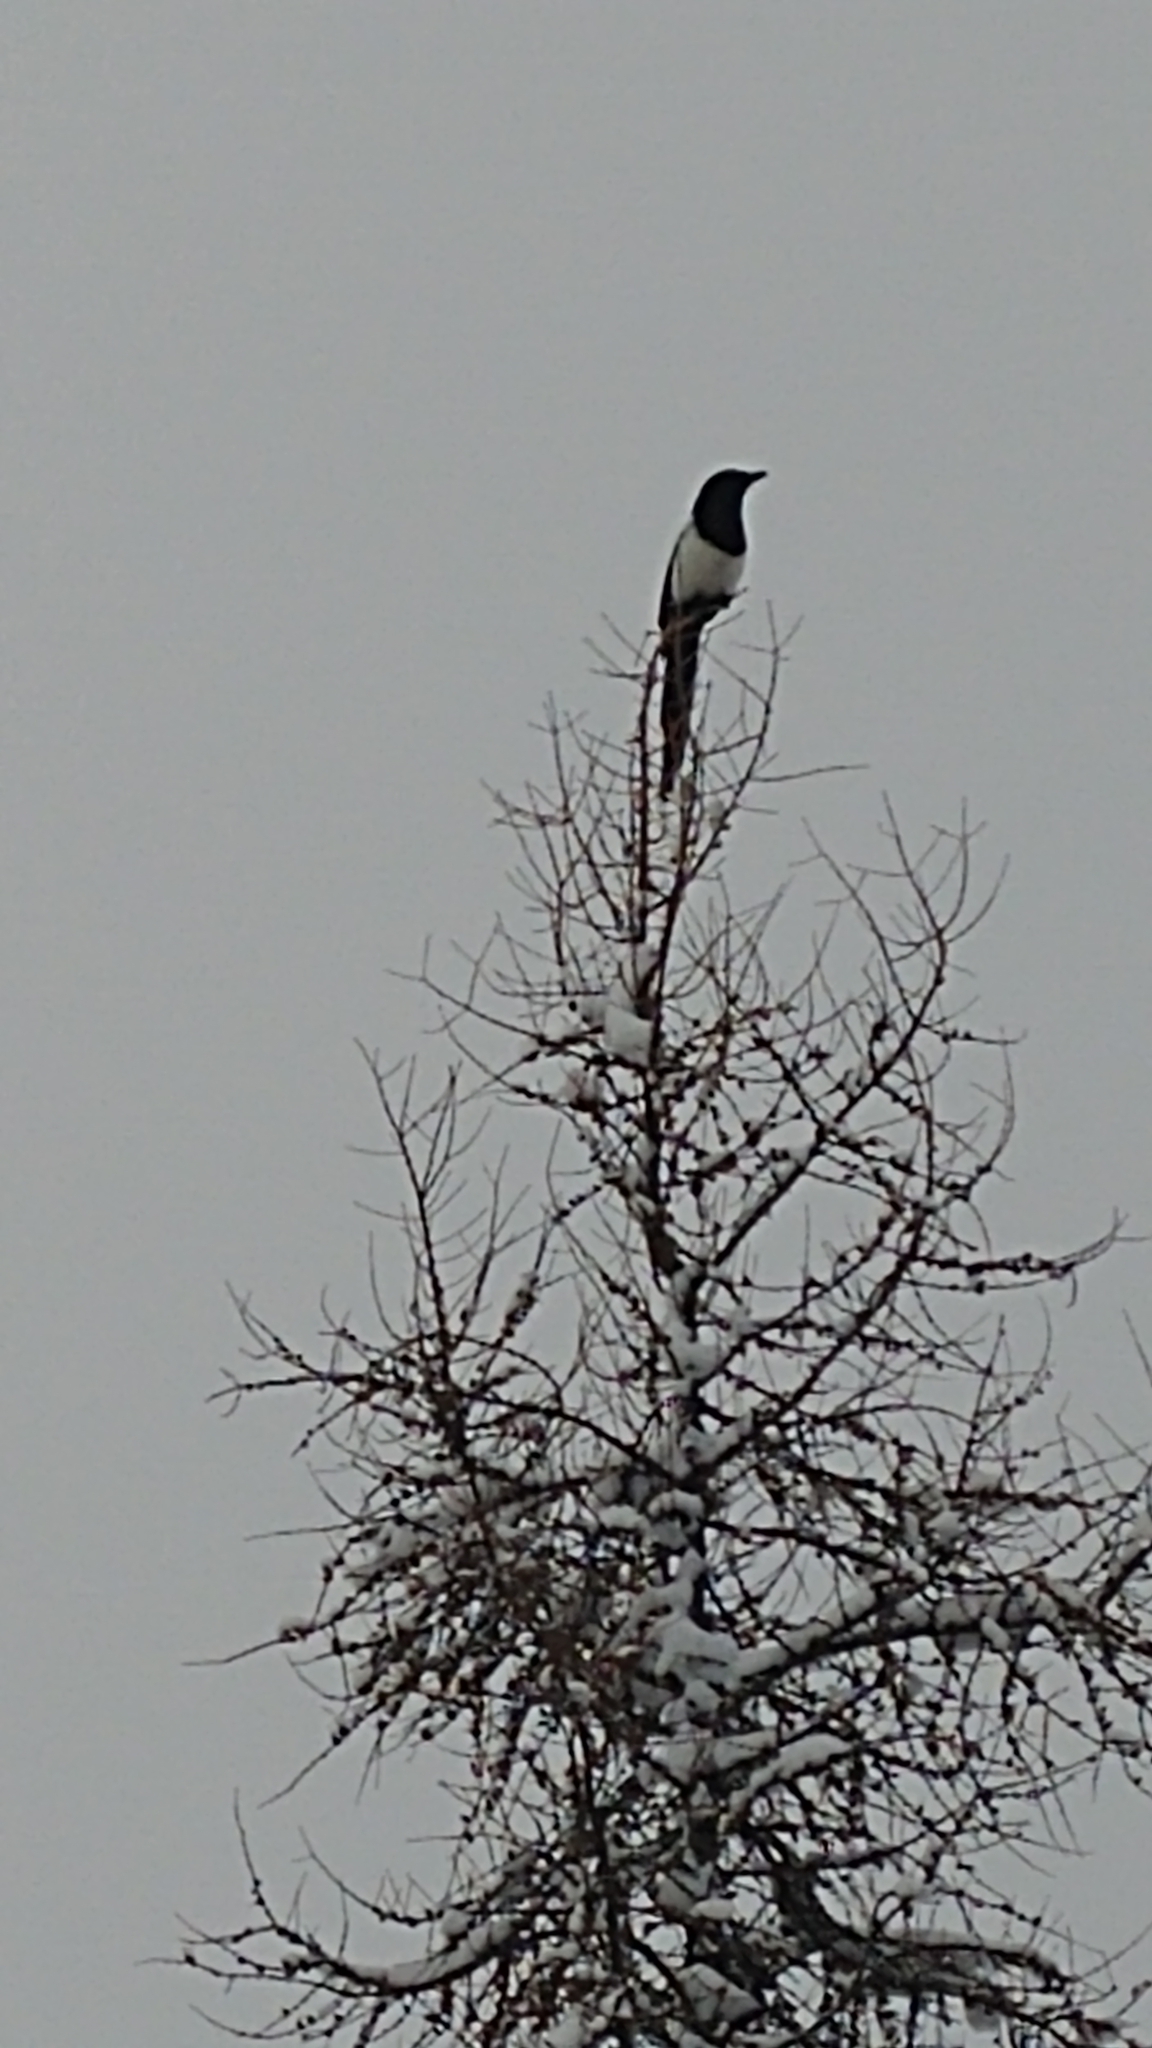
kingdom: Animalia
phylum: Chordata
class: Aves
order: Passeriformes
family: Corvidae
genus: Pica
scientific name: Pica hudsonia
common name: Black-billed magpie
